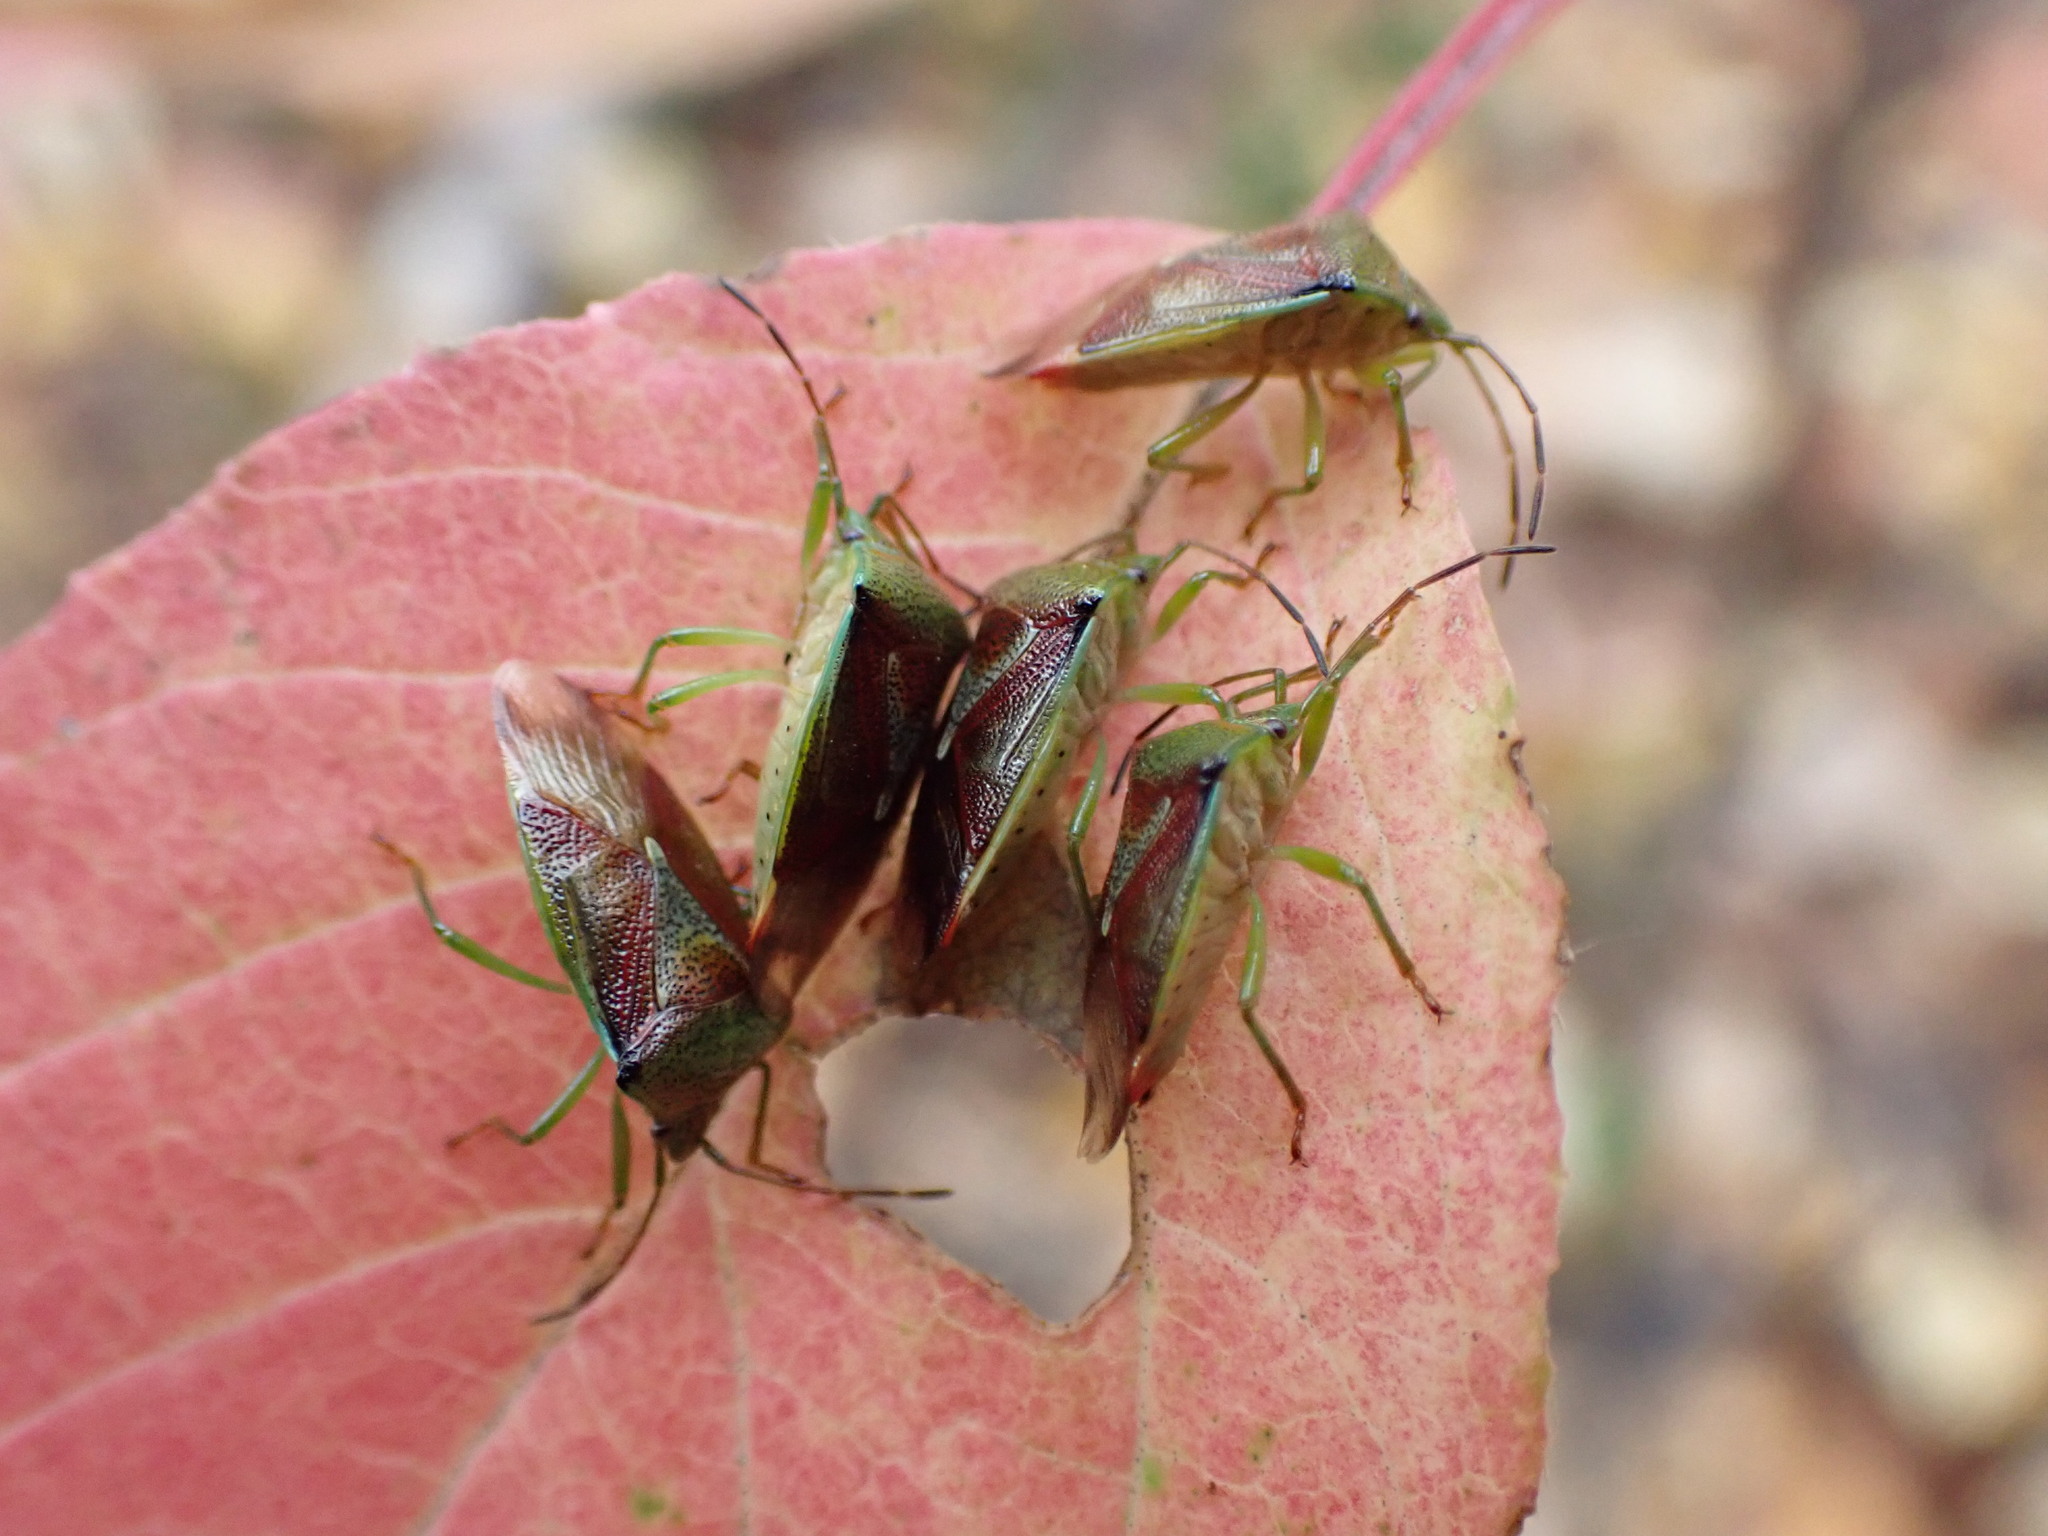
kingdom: Animalia
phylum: Arthropoda
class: Insecta
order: Hemiptera
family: Acanthosomatidae
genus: Elasmostethus
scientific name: Elasmostethus interstinctus
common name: Birch shieldbug
